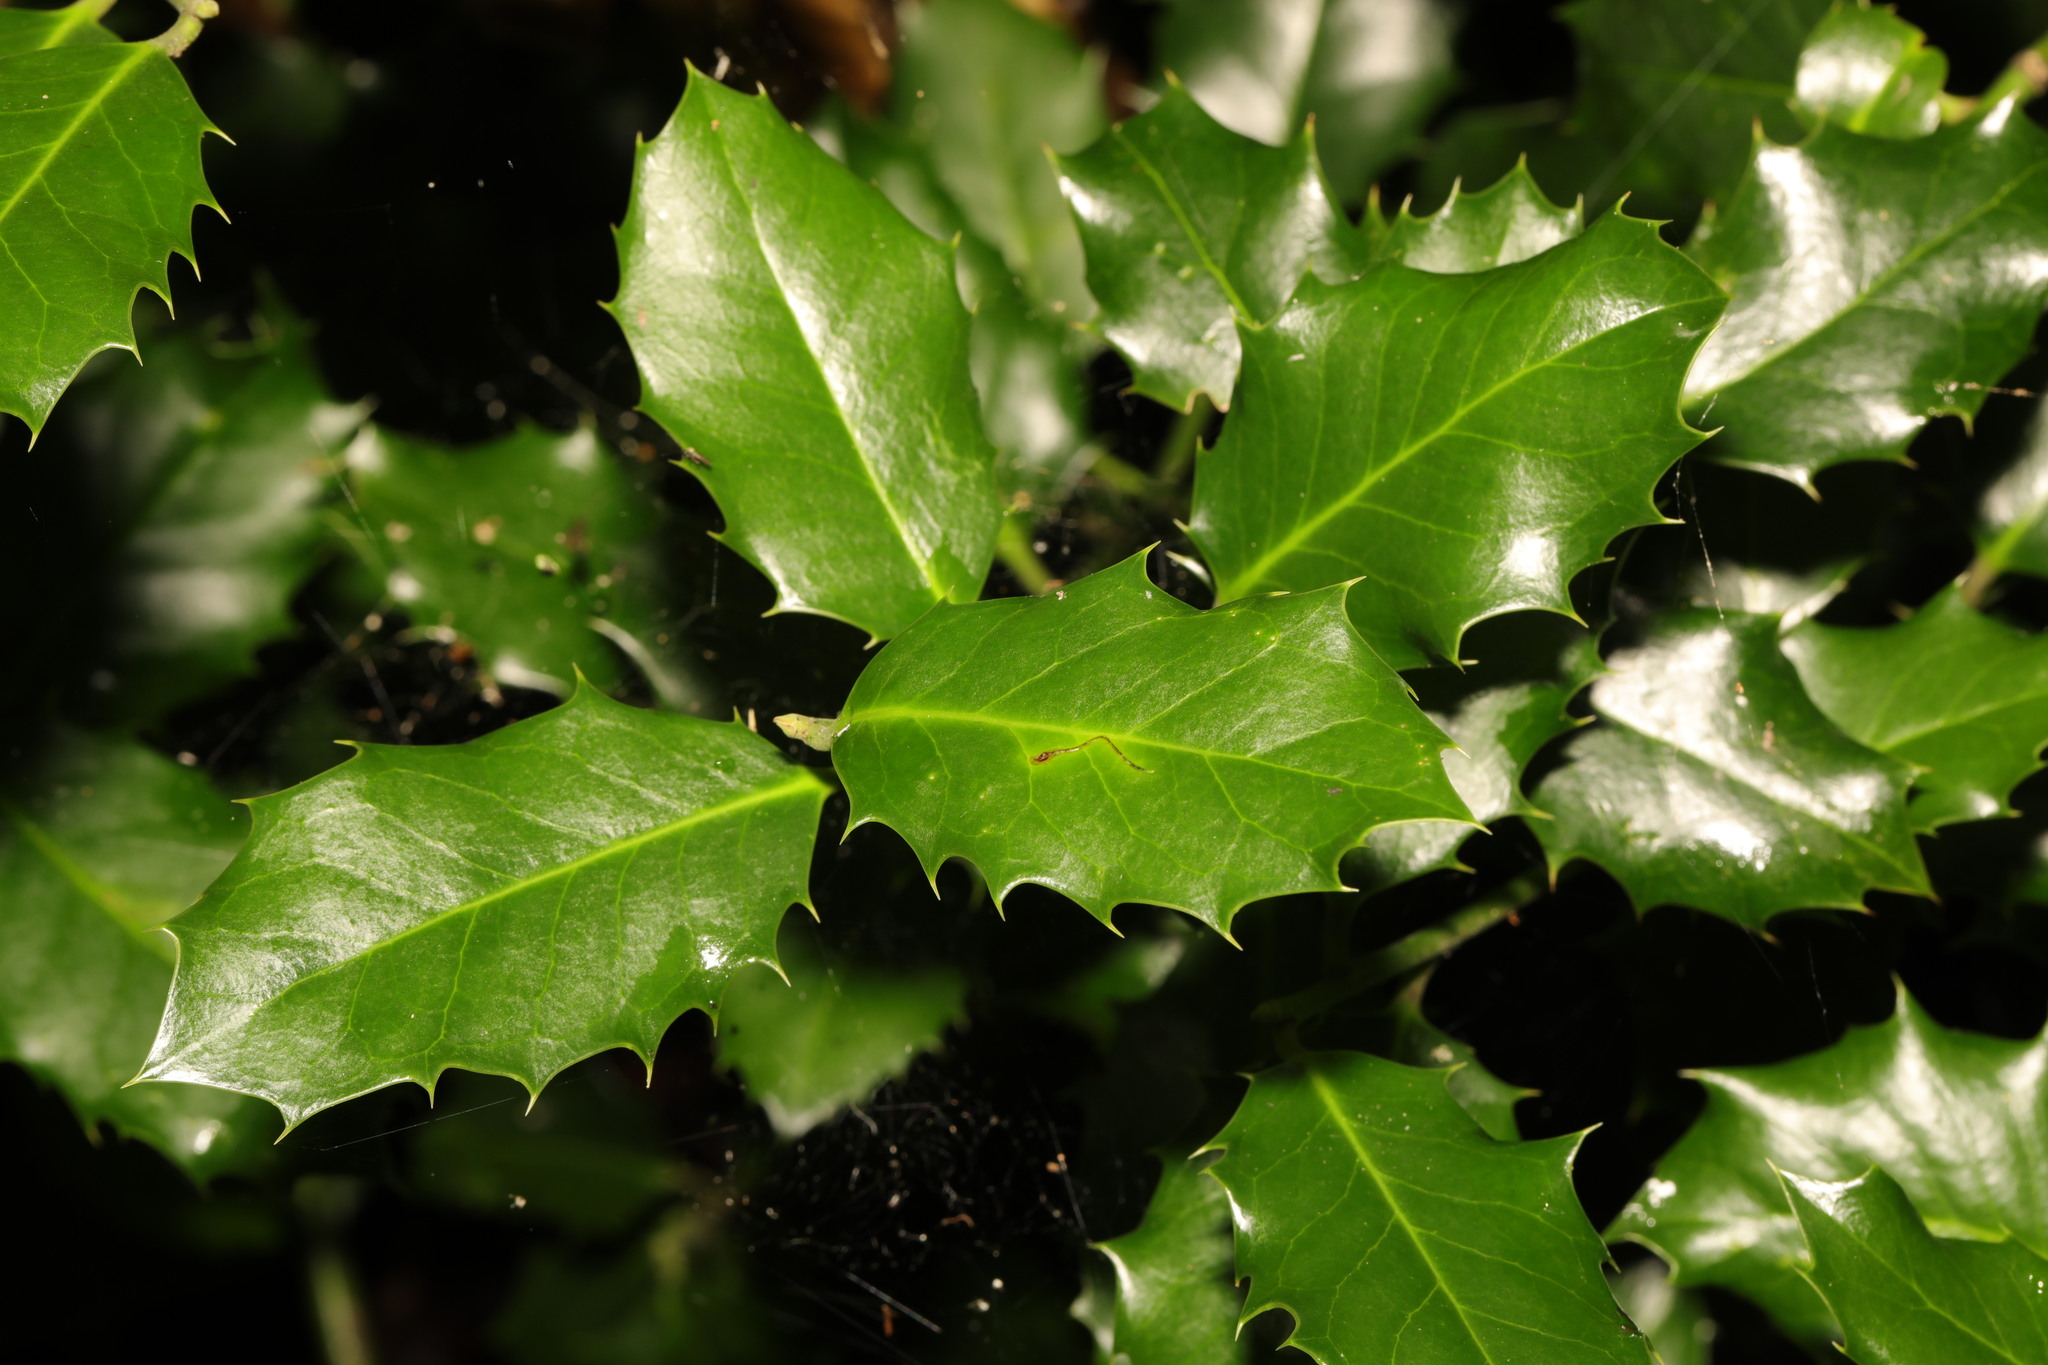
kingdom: Plantae
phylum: Tracheophyta
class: Magnoliopsida
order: Aquifoliales
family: Aquifoliaceae
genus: Ilex
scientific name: Ilex aquifolium
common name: English holly
